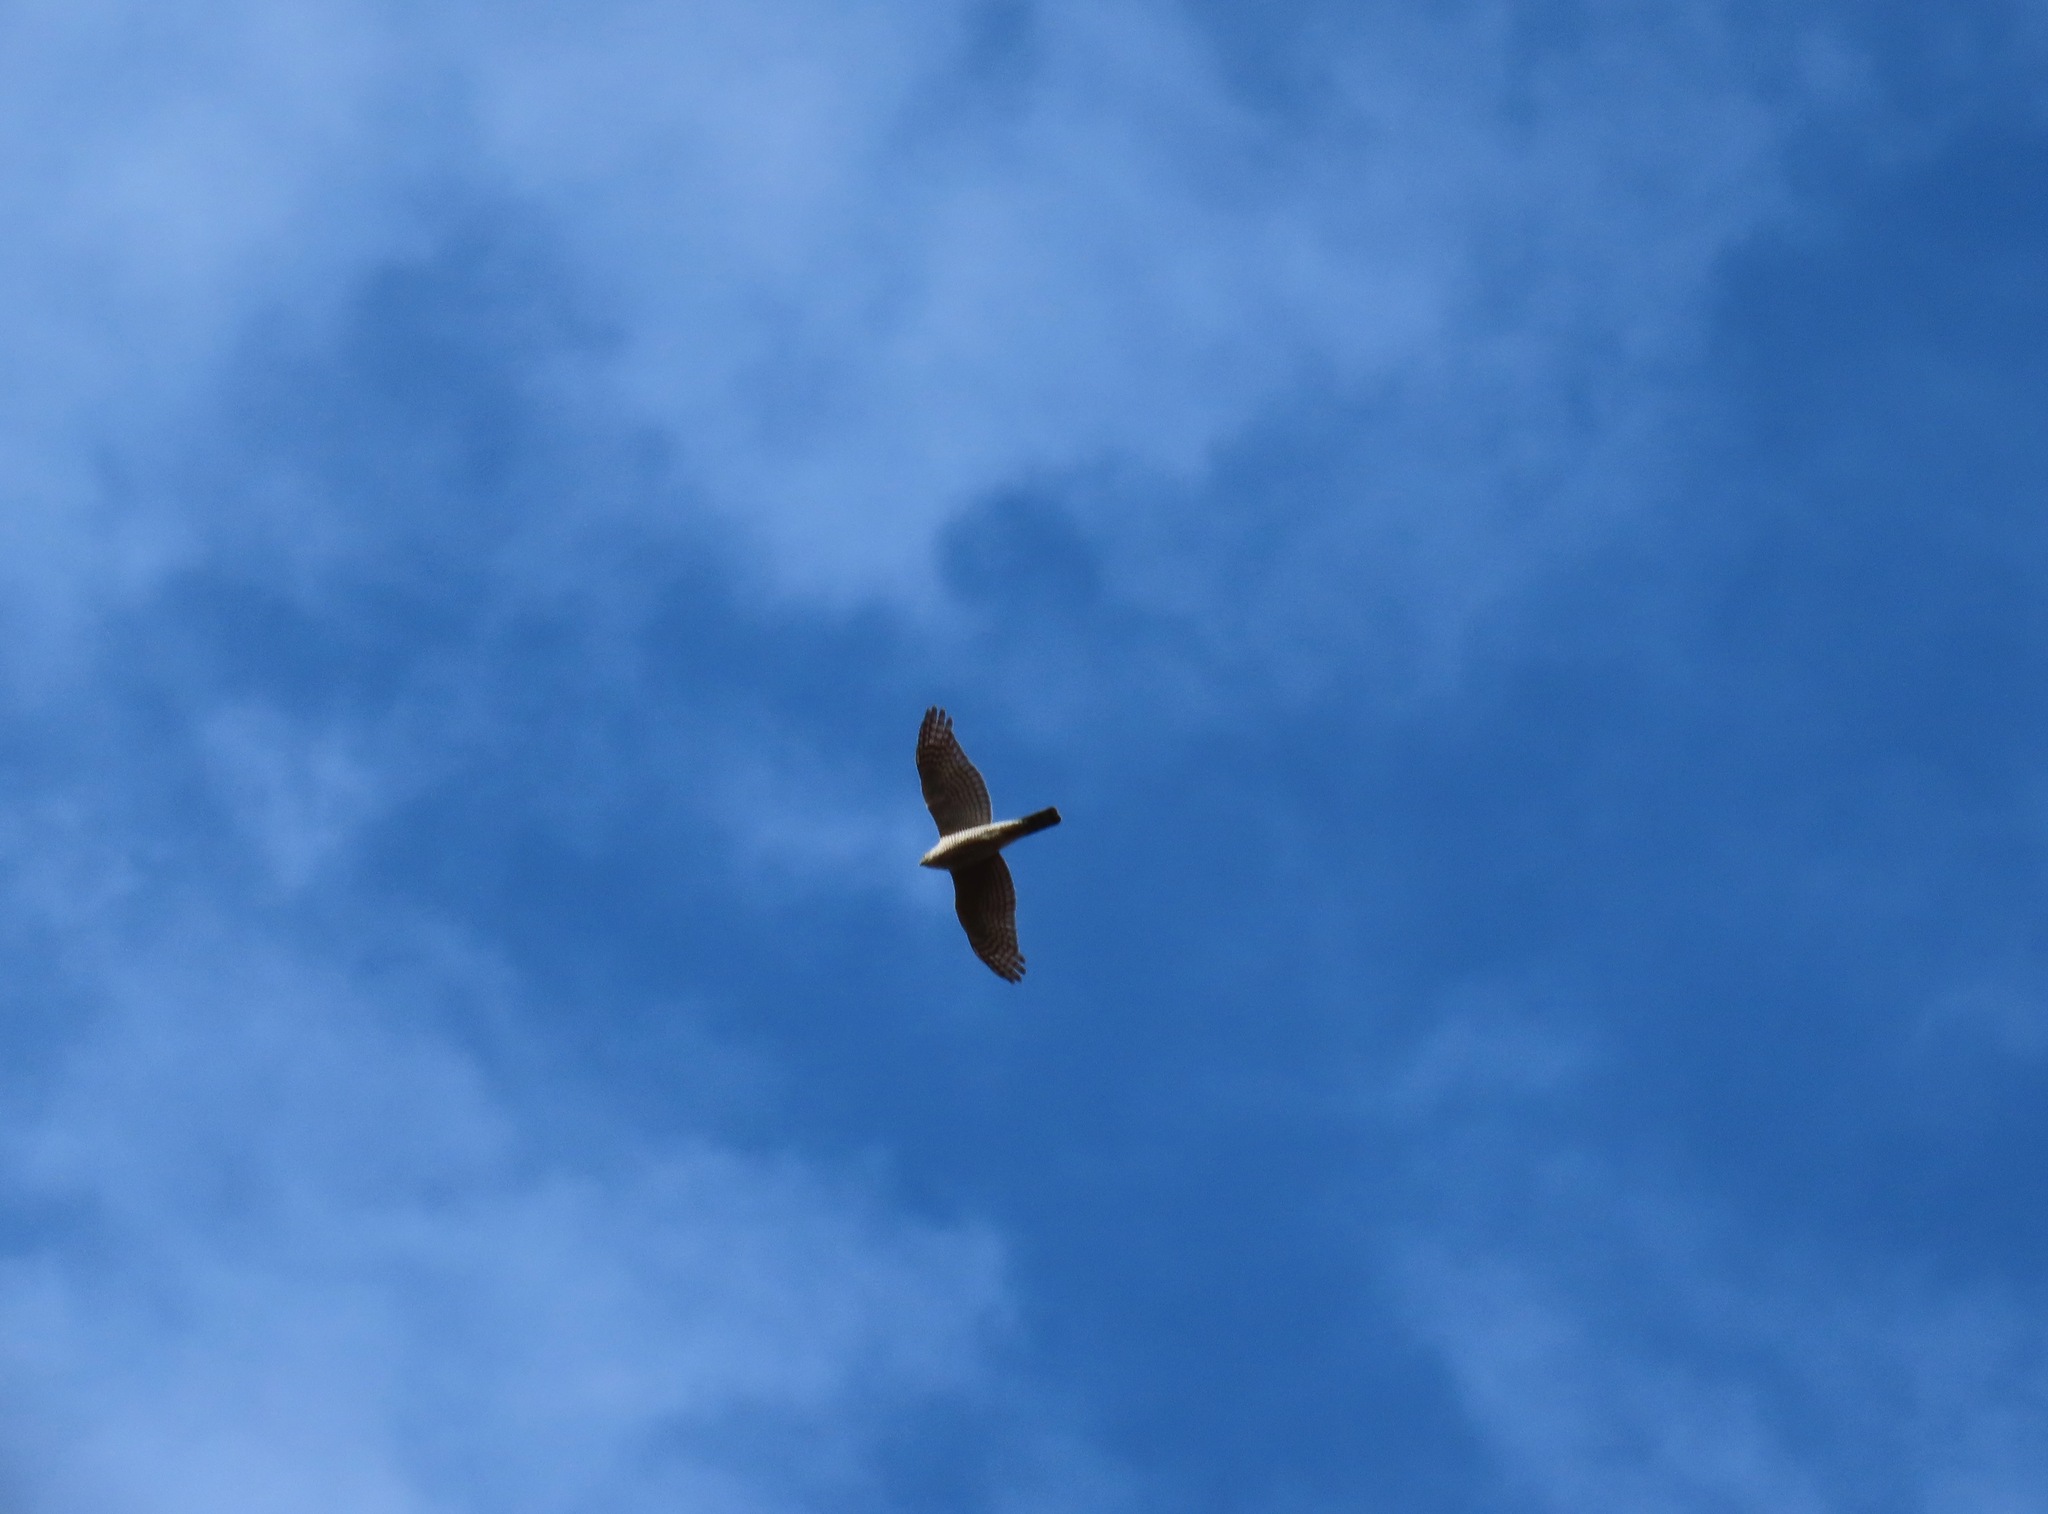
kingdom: Animalia
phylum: Chordata
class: Aves
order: Accipitriformes
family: Accipitridae
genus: Accipiter
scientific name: Accipiter gularis
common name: Japanese sparrowhawk
